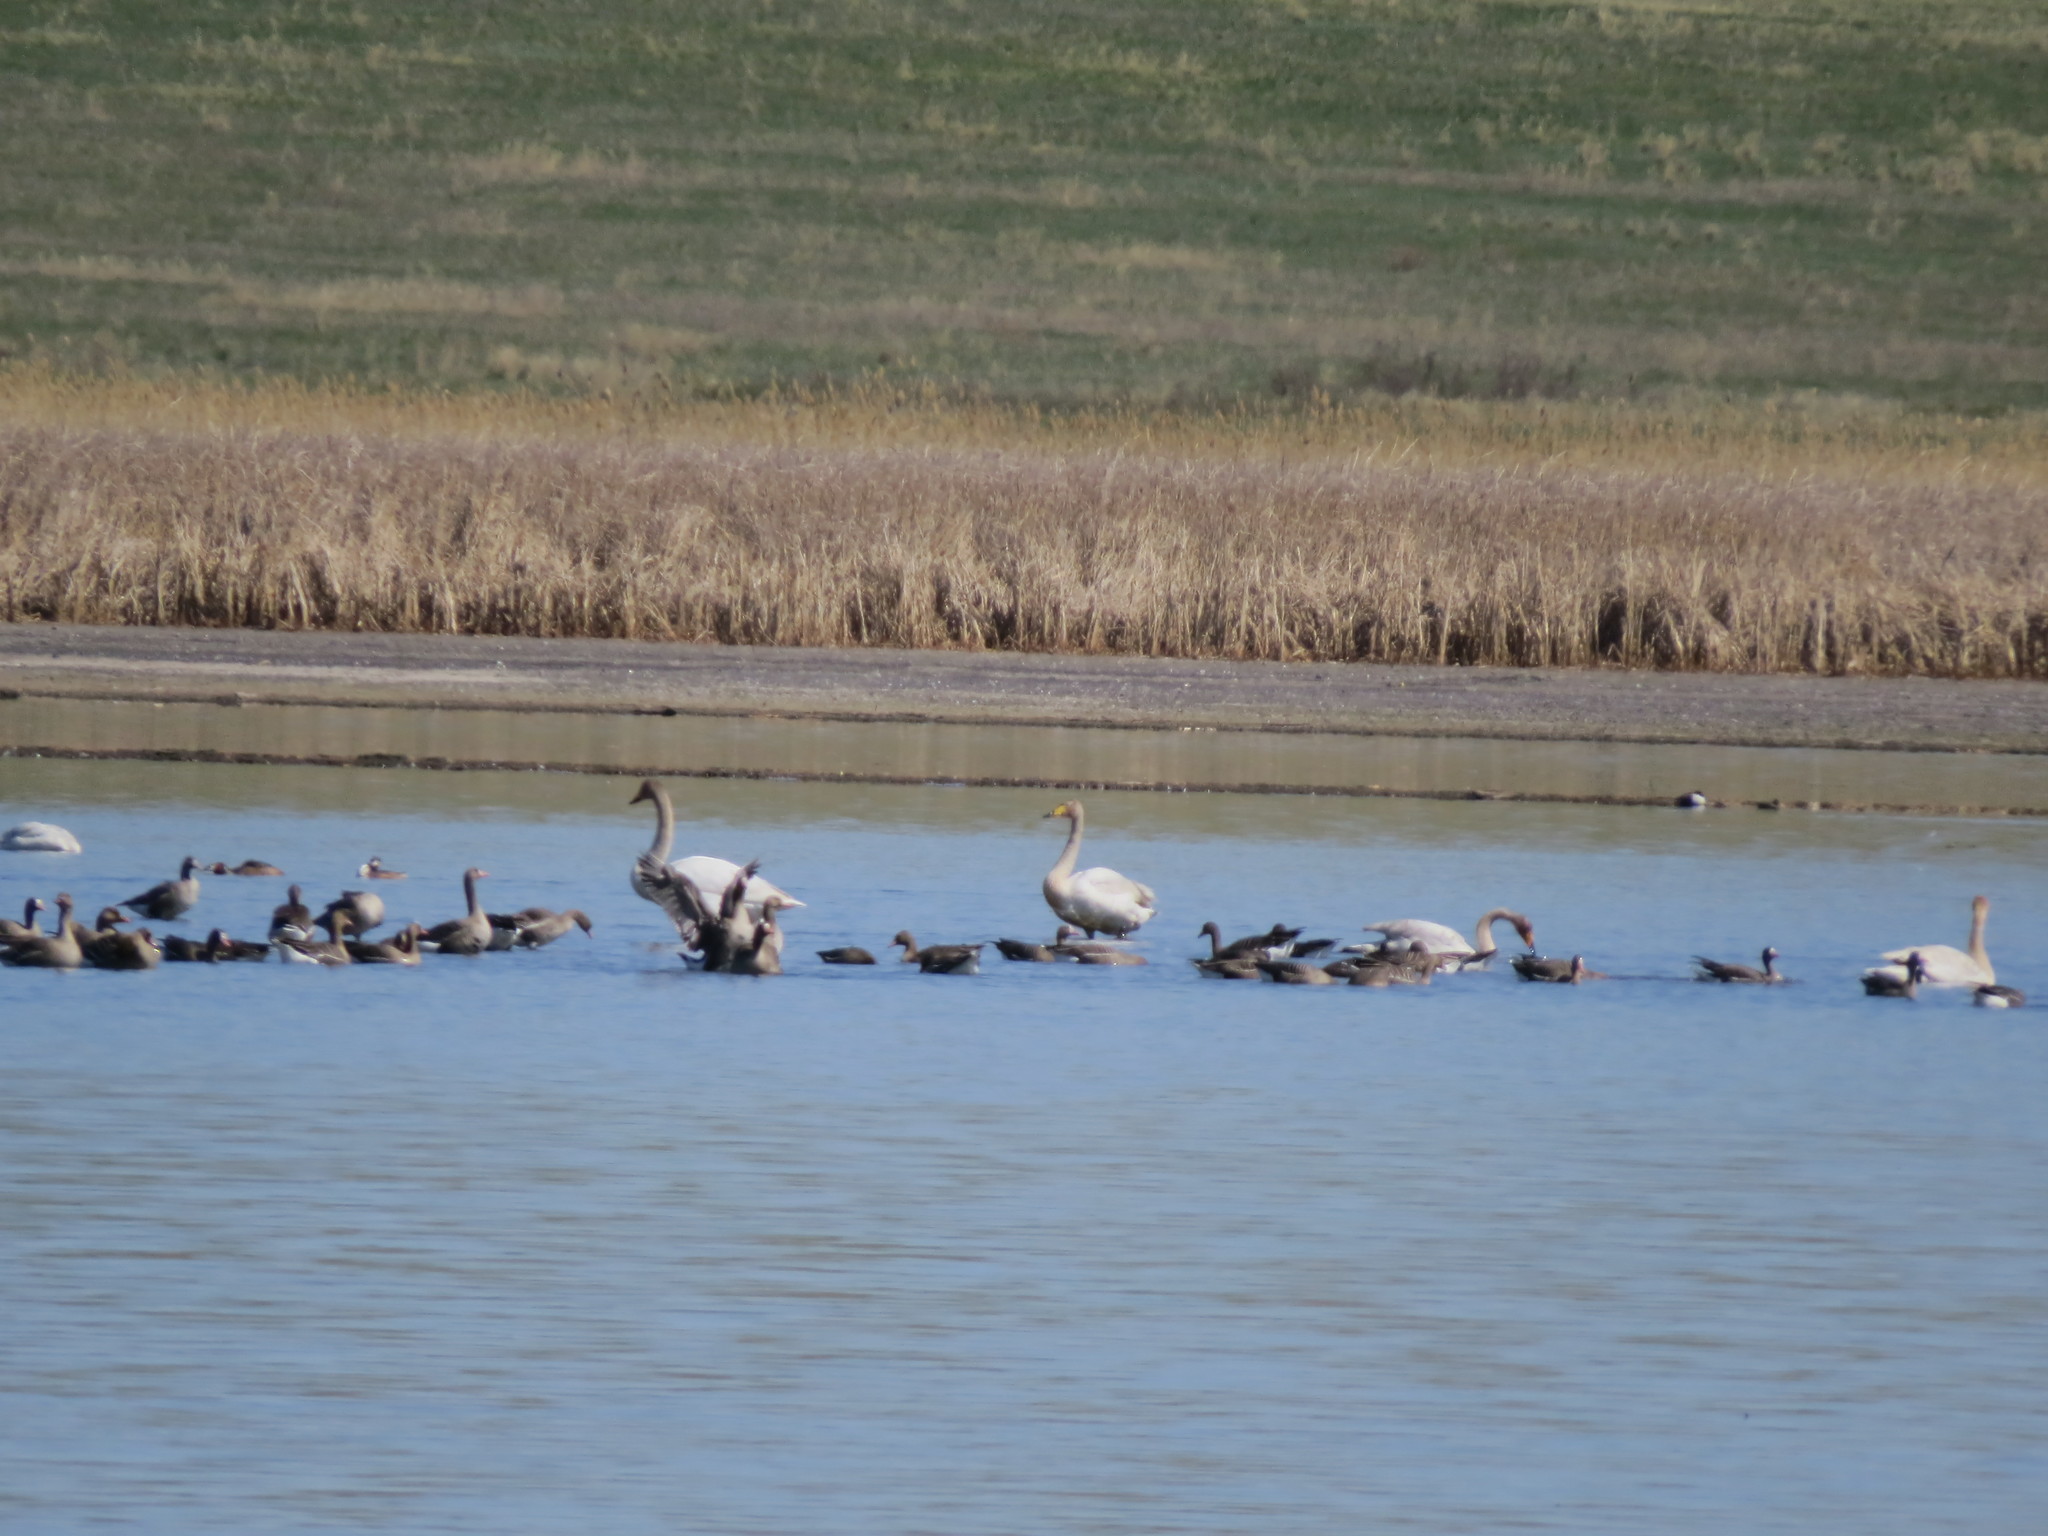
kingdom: Animalia
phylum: Chordata
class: Aves
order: Anseriformes
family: Anatidae
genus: Cygnus
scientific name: Cygnus cygnus
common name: Whooper swan
